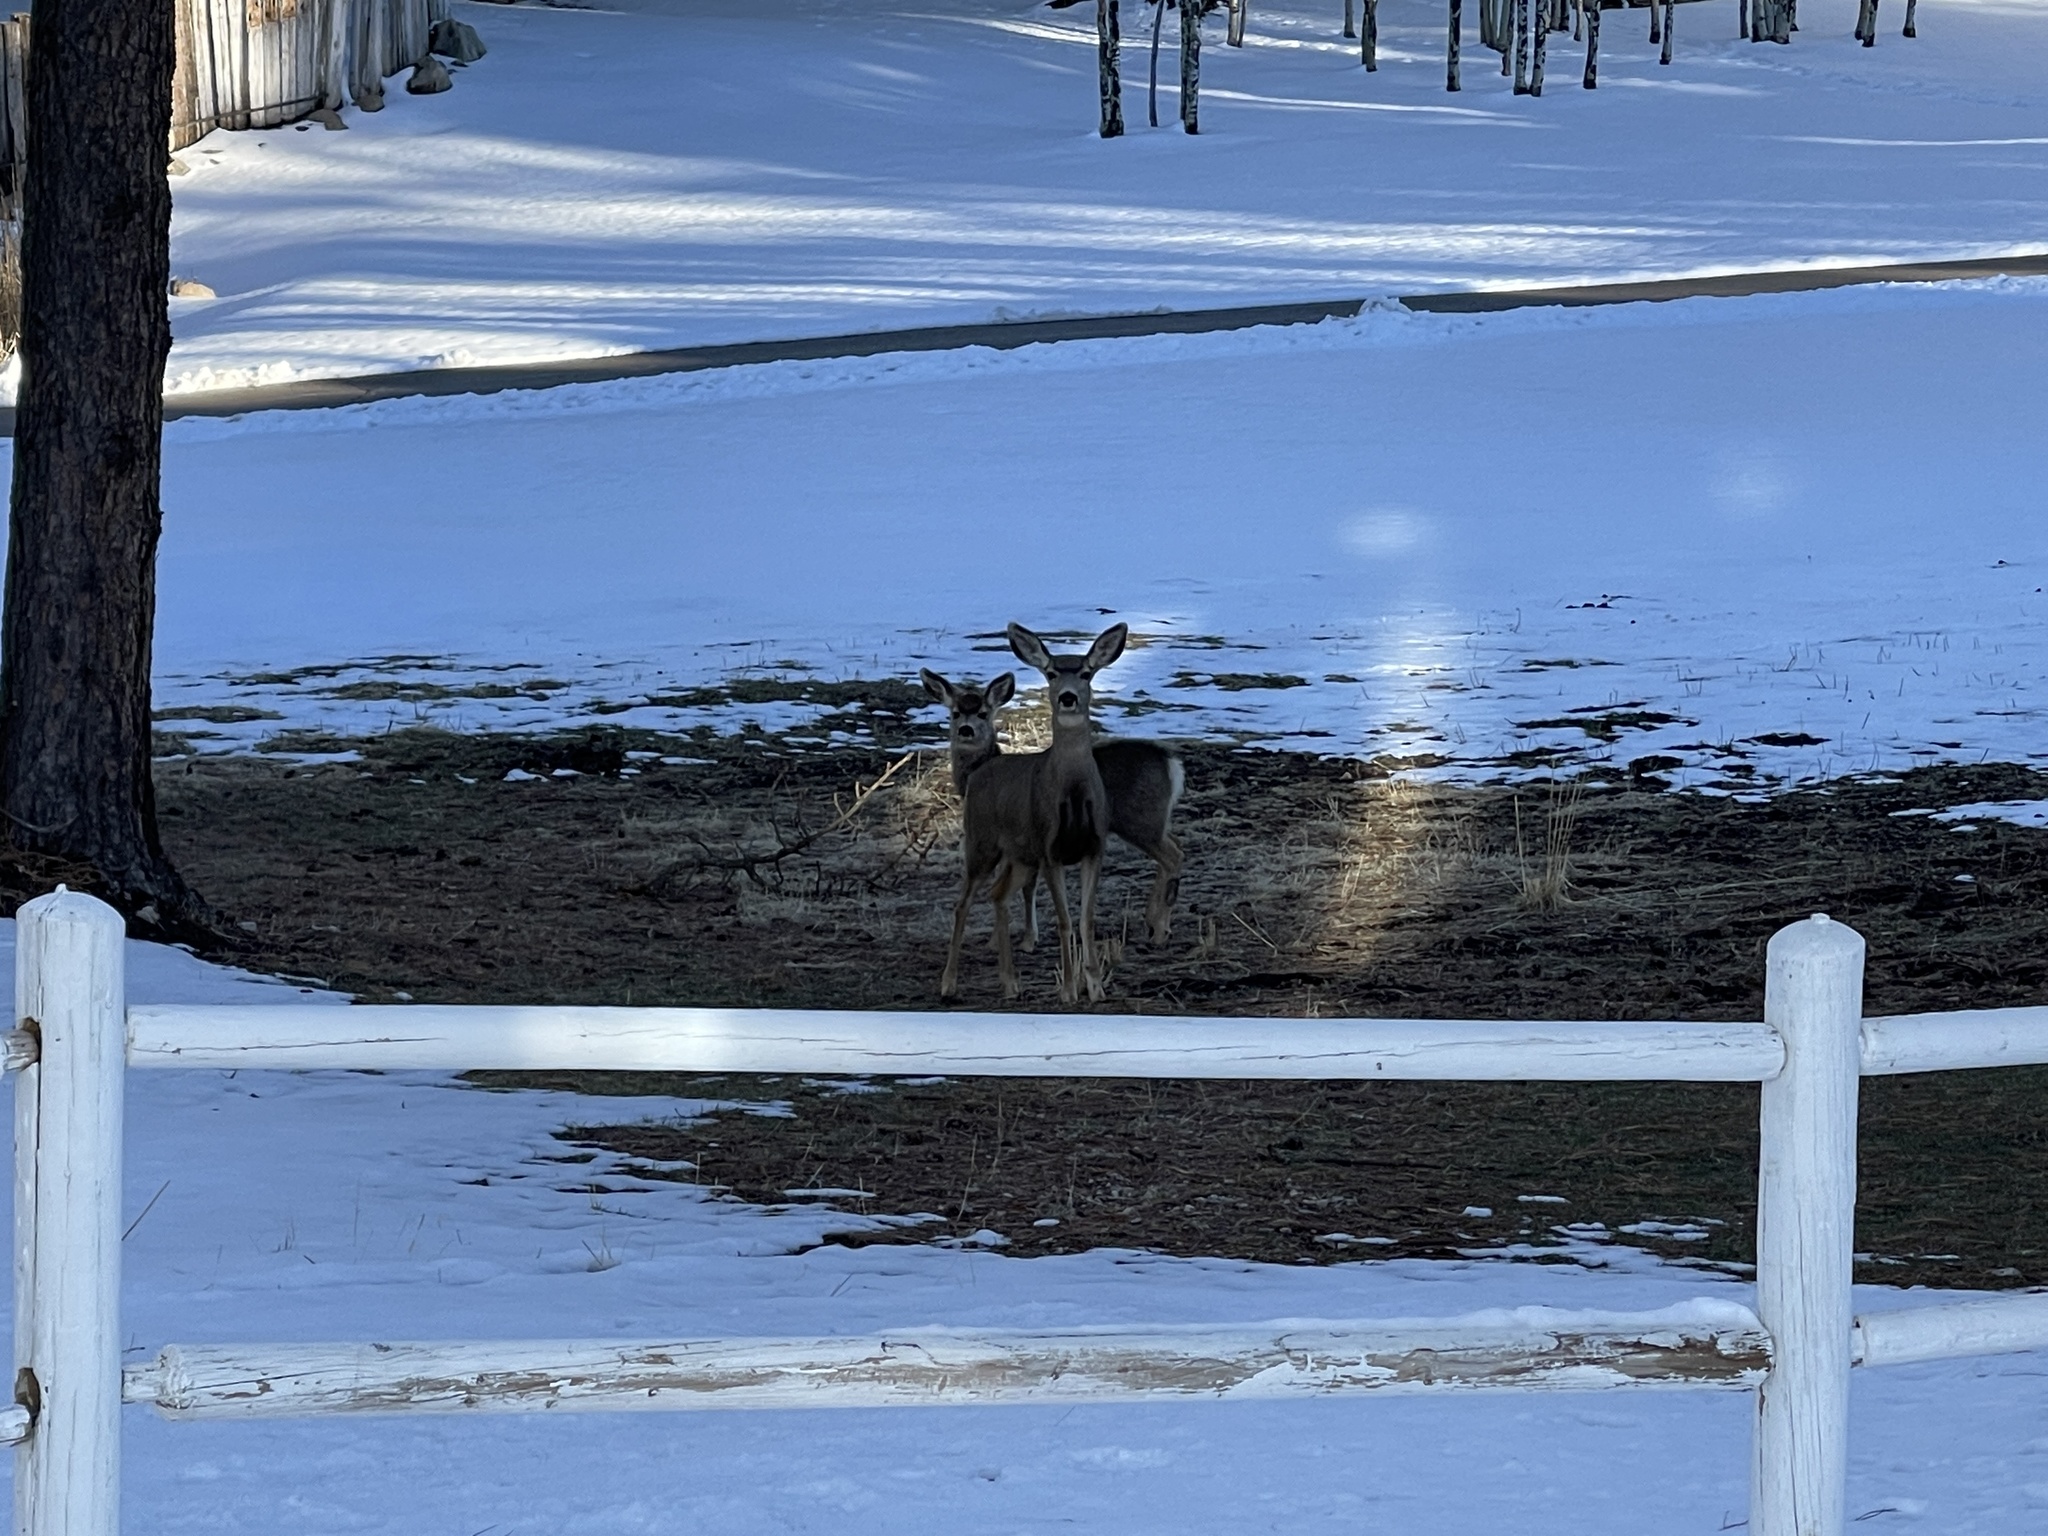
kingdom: Animalia
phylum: Chordata
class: Mammalia
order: Artiodactyla
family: Cervidae
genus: Odocoileus
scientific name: Odocoileus hemionus
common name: Mule deer
